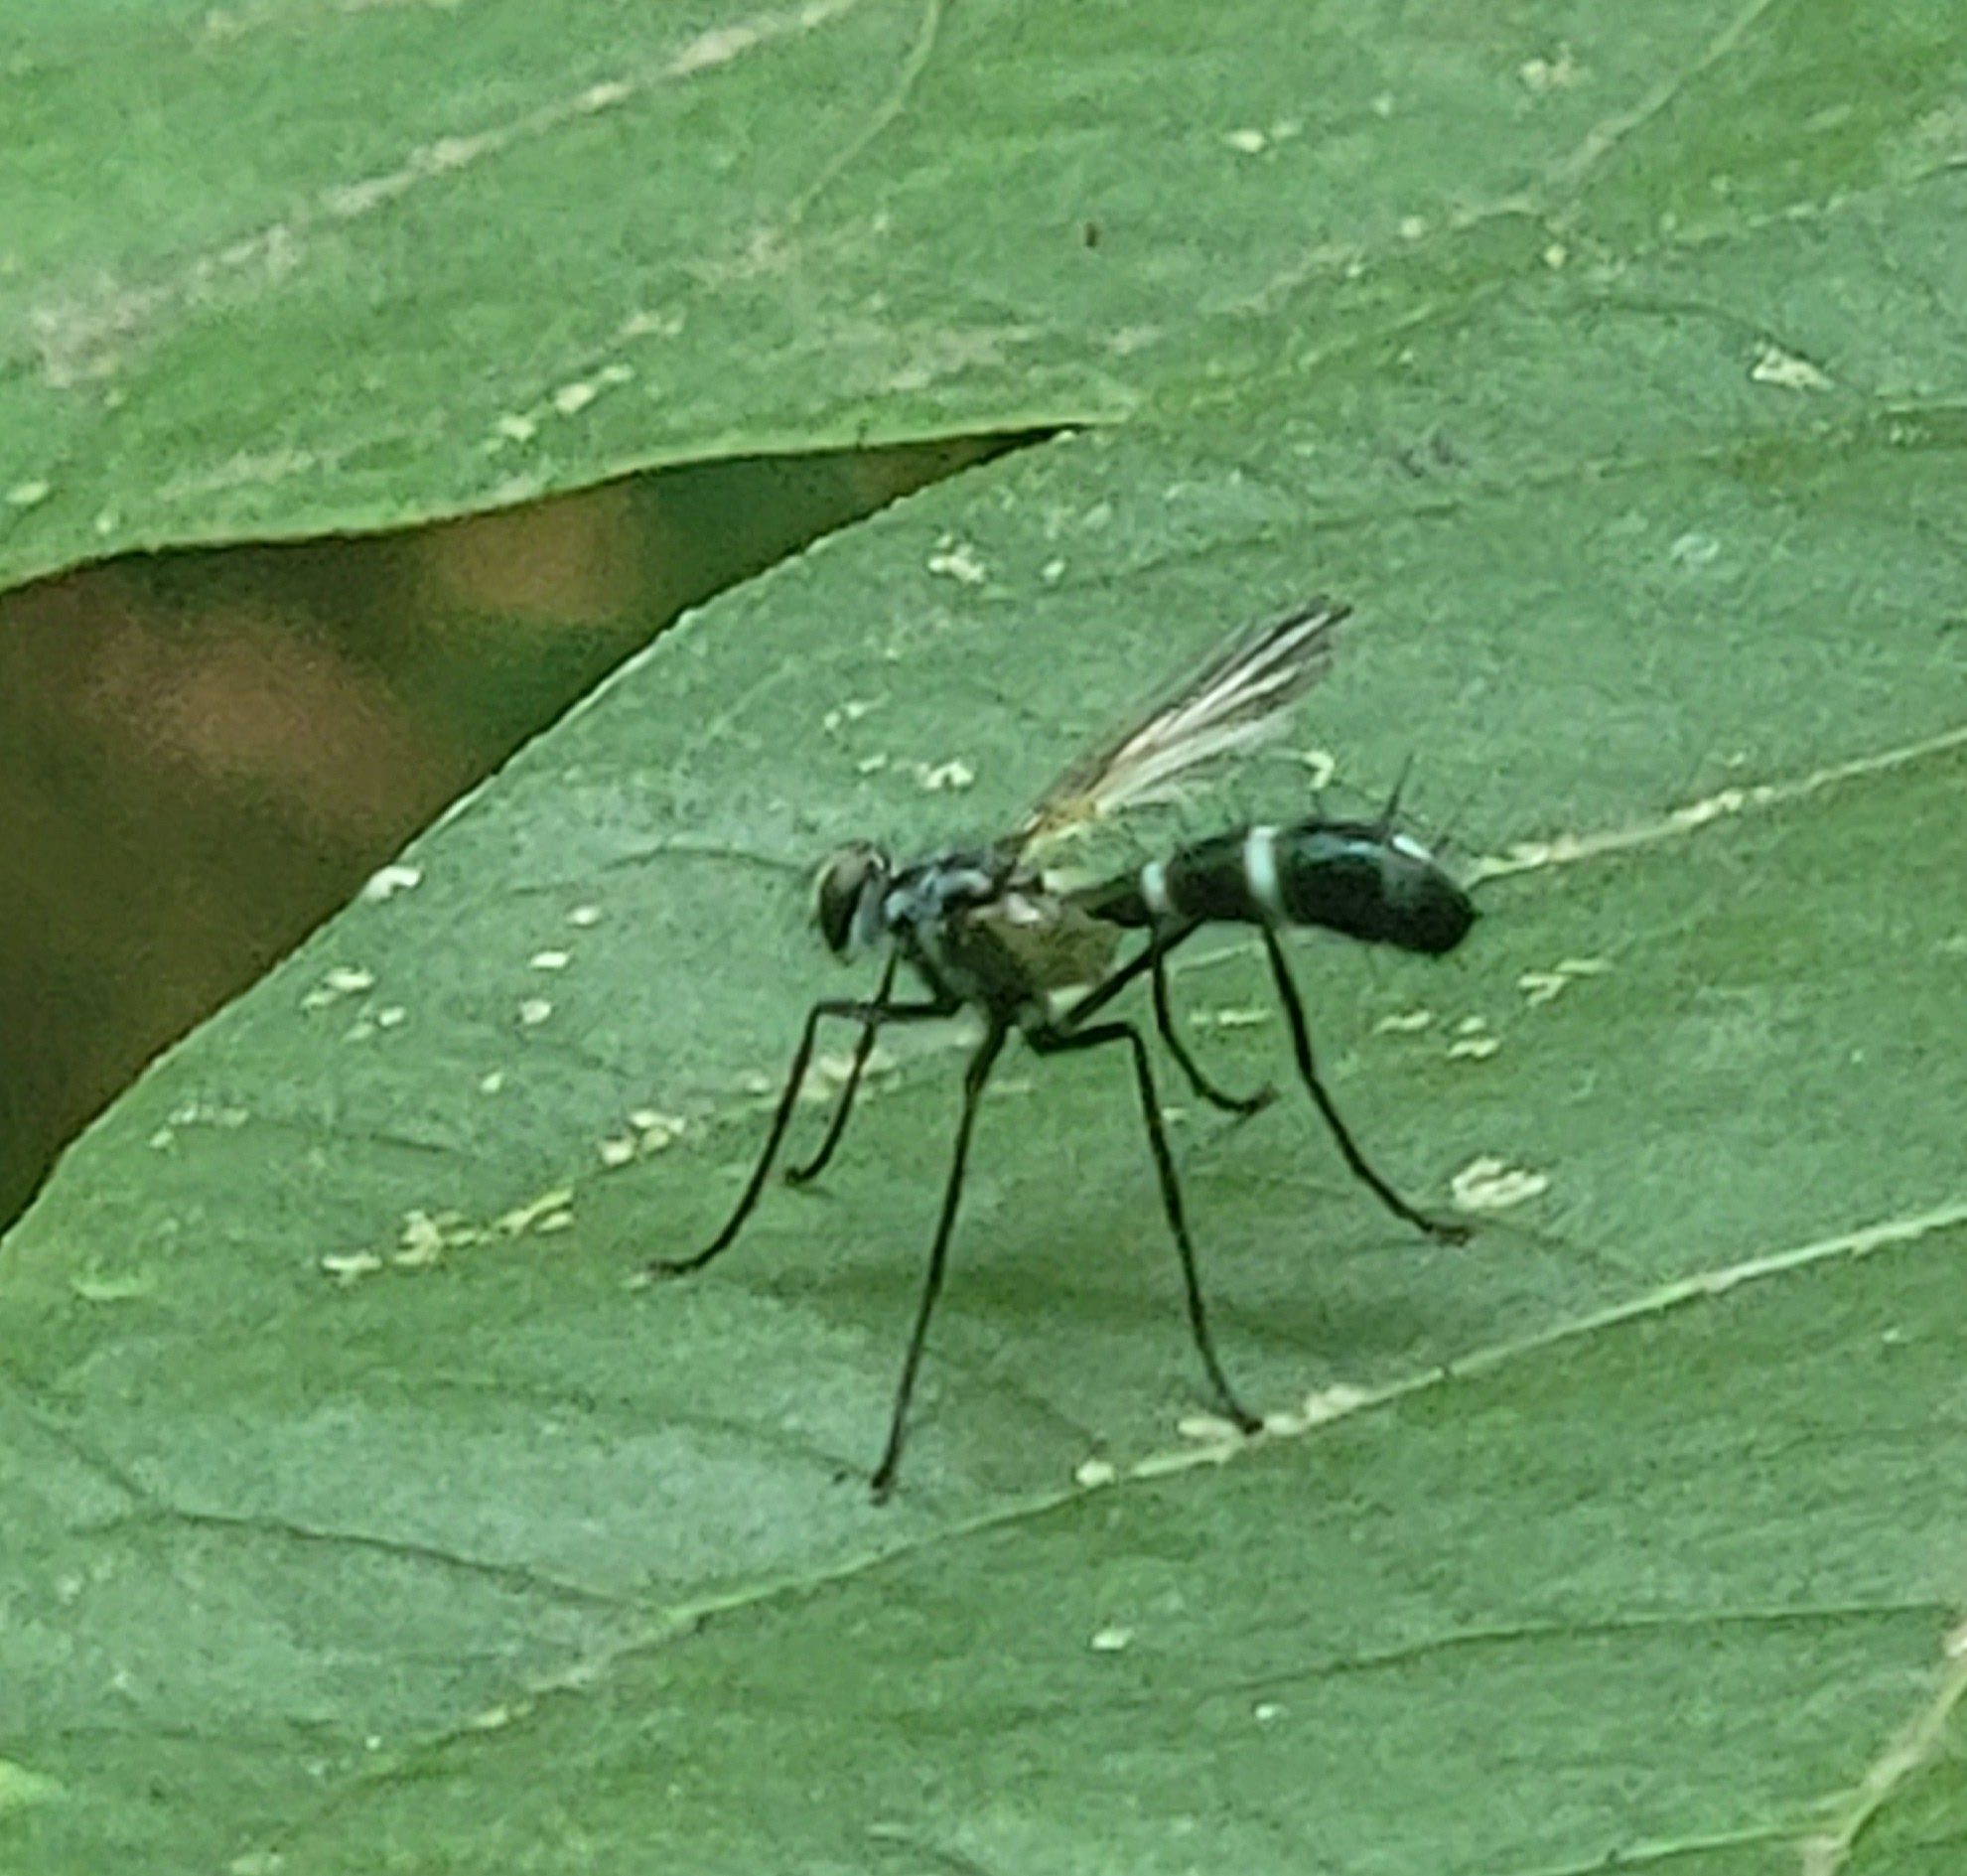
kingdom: Animalia
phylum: Arthropoda
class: Insecta
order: Diptera
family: Tachinidae
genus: Cordyligaster
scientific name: Cordyligaster septentrionalis
